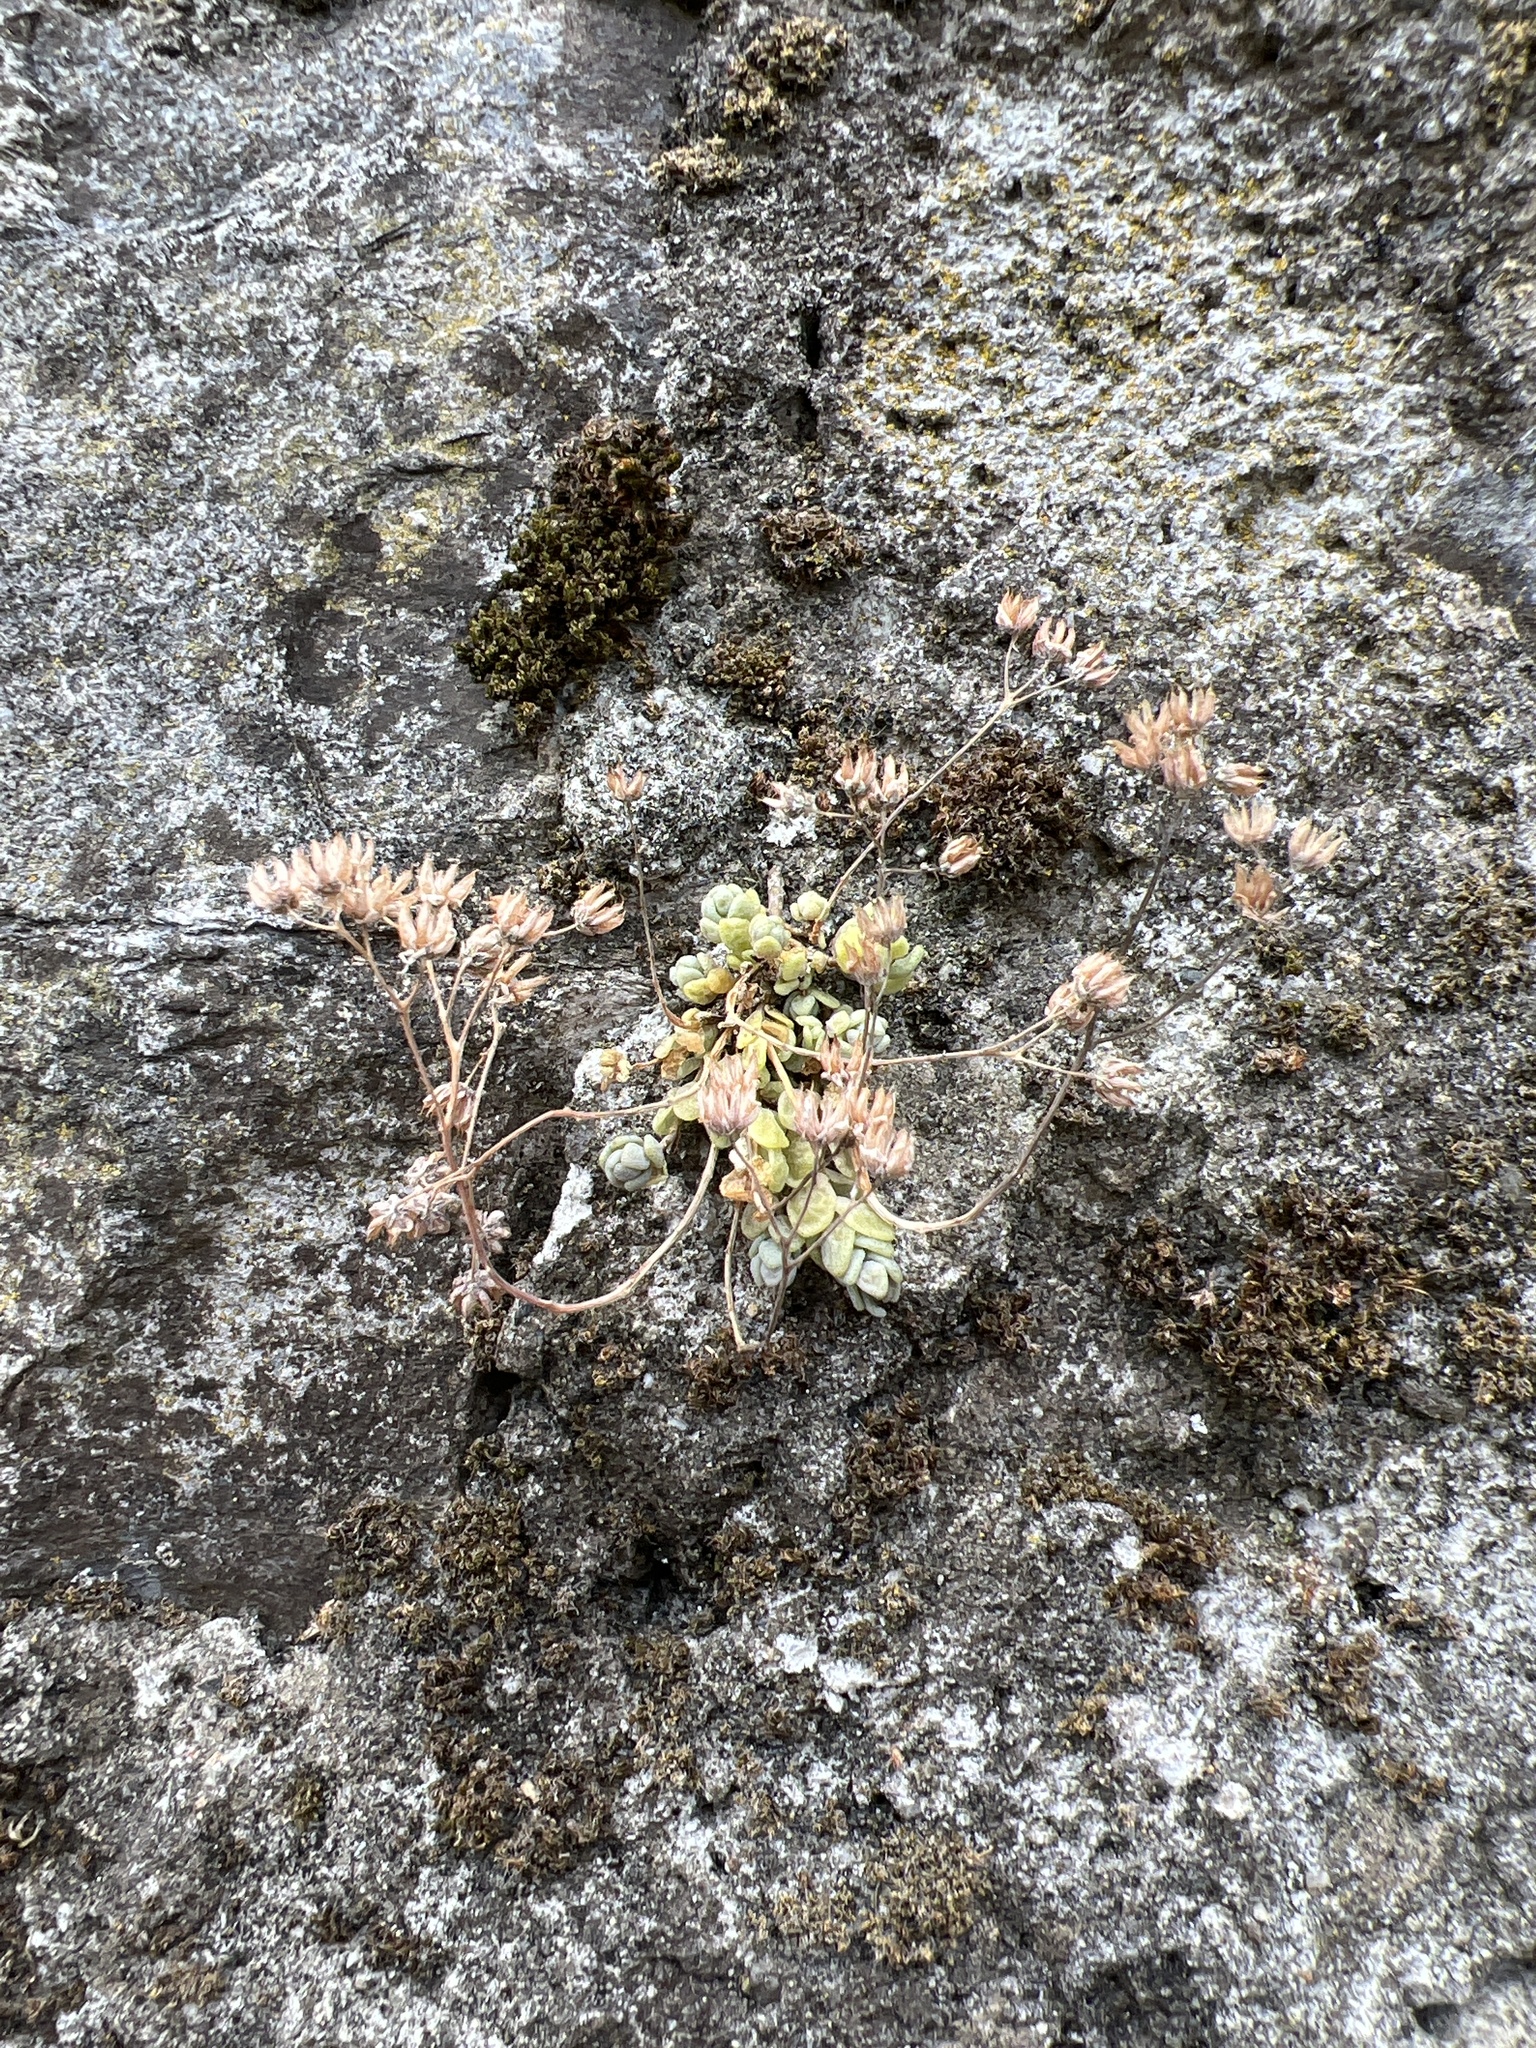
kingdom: Plantae
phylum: Tracheophyta
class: Magnoliopsida
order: Saxifragales
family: Crassulaceae
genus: Sedum
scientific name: Sedum dasyphyllum
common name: Thick-leaf stonecrop
